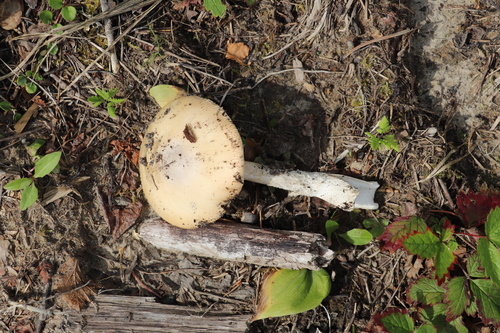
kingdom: Fungi
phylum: Basidiomycota
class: Agaricomycetes
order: Agaricales
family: Amanitaceae
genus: Amanita
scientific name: Amanita crocea
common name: Orange grisette
